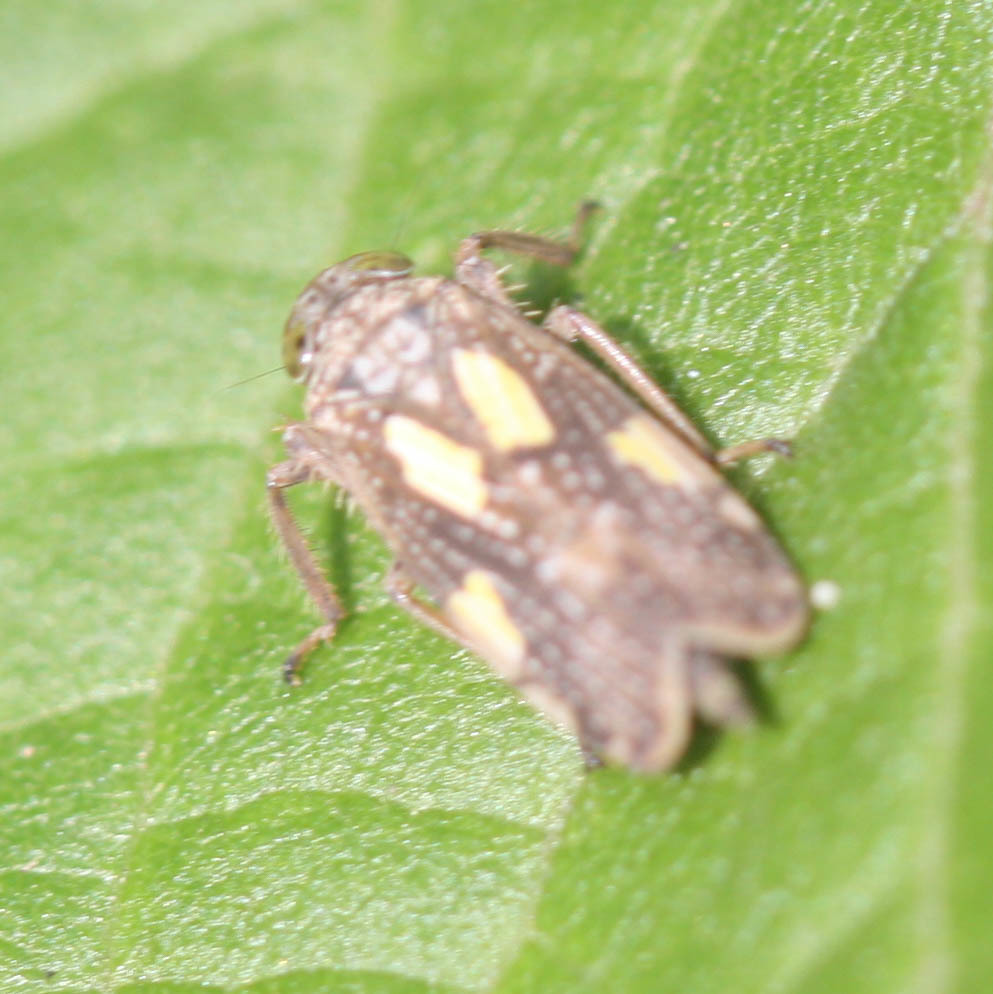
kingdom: Animalia
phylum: Arthropoda
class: Insecta
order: Hemiptera
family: Cicadellidae
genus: Omanolidia
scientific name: Omanolidia bistyla
